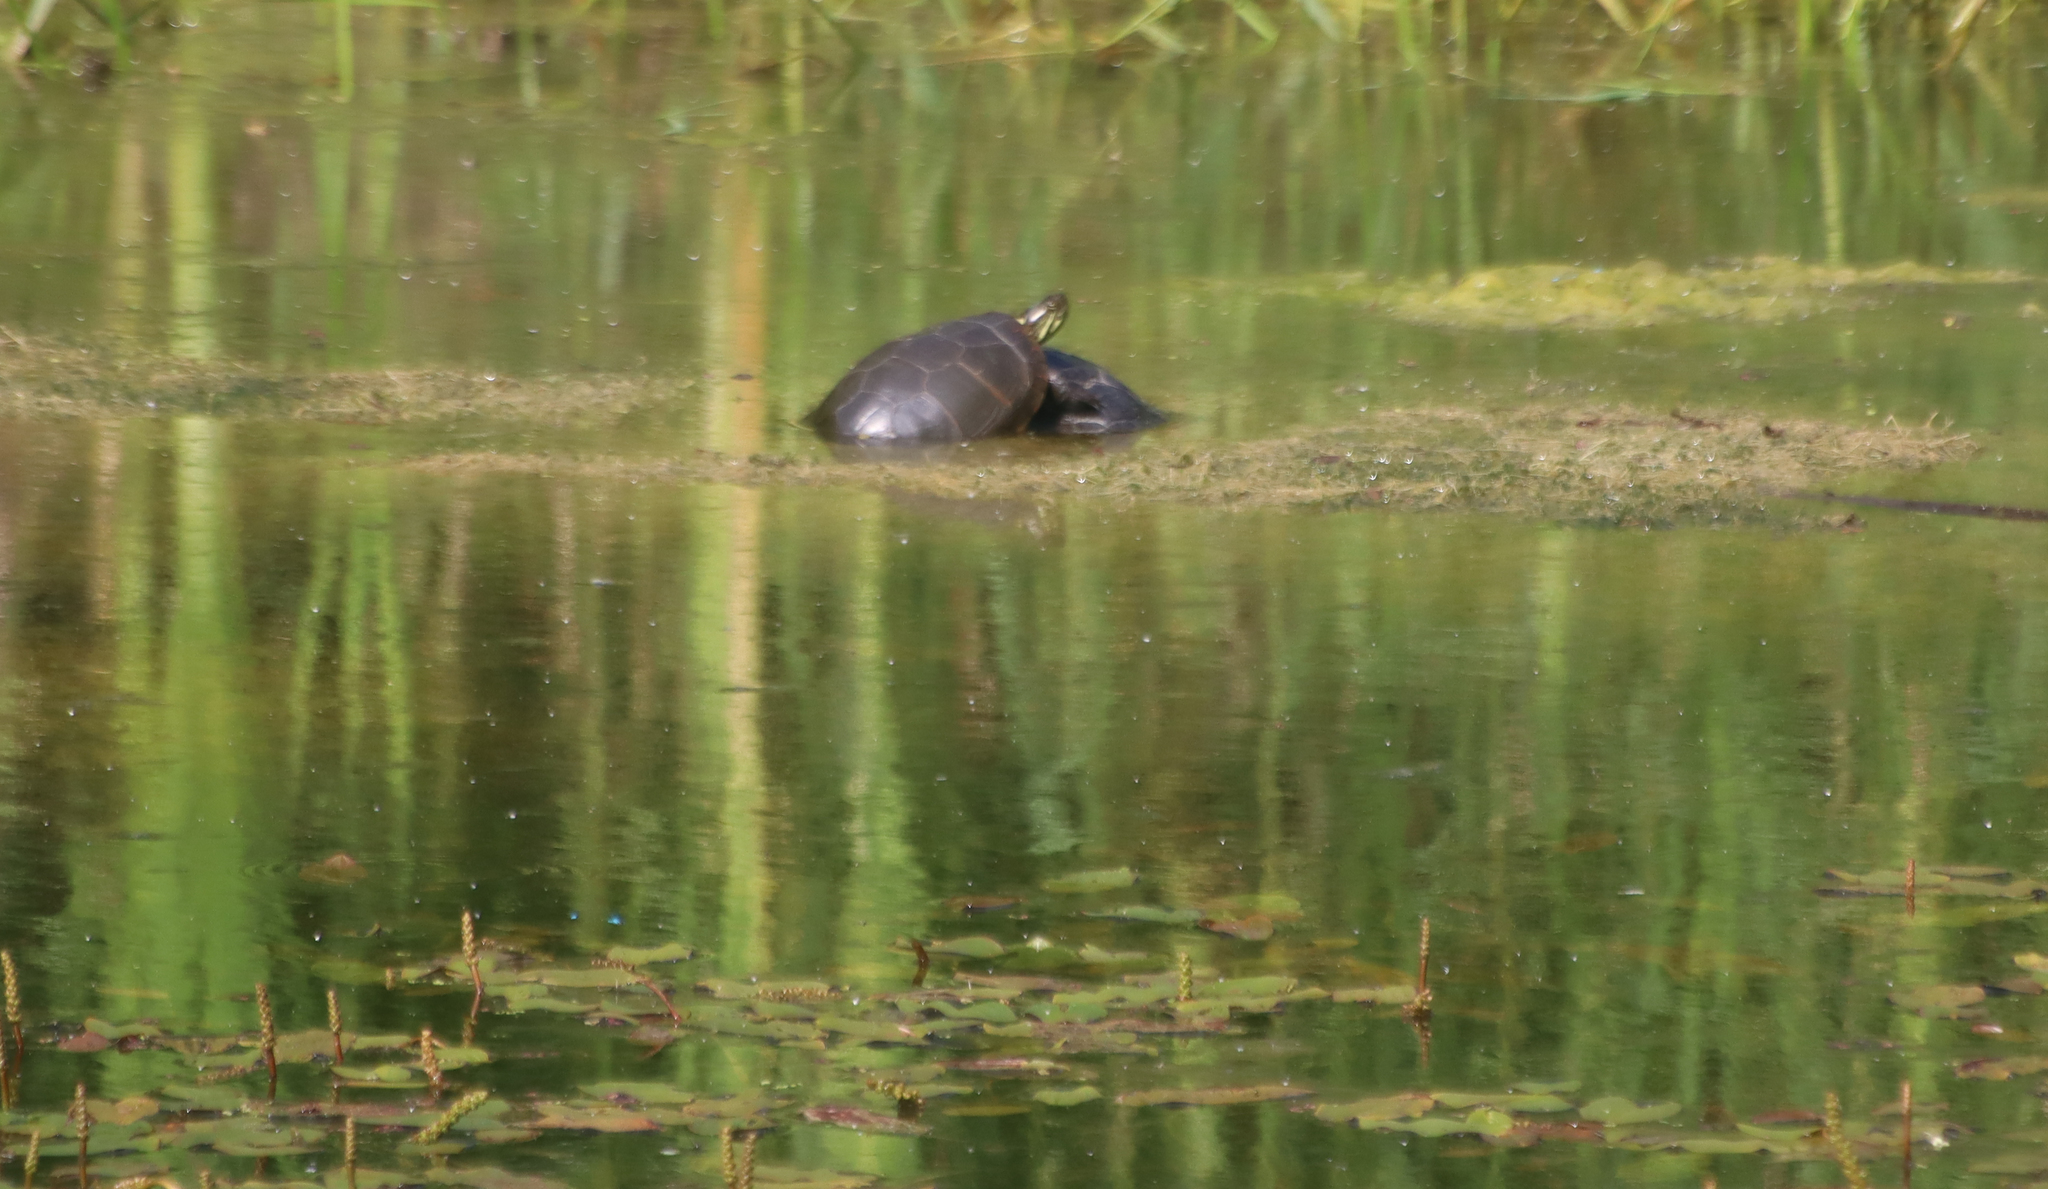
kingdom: Animalia
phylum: Chordata
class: Testudines
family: Emydidae
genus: Chrysemys
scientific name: Chrysemys picta
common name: Painted turtle
